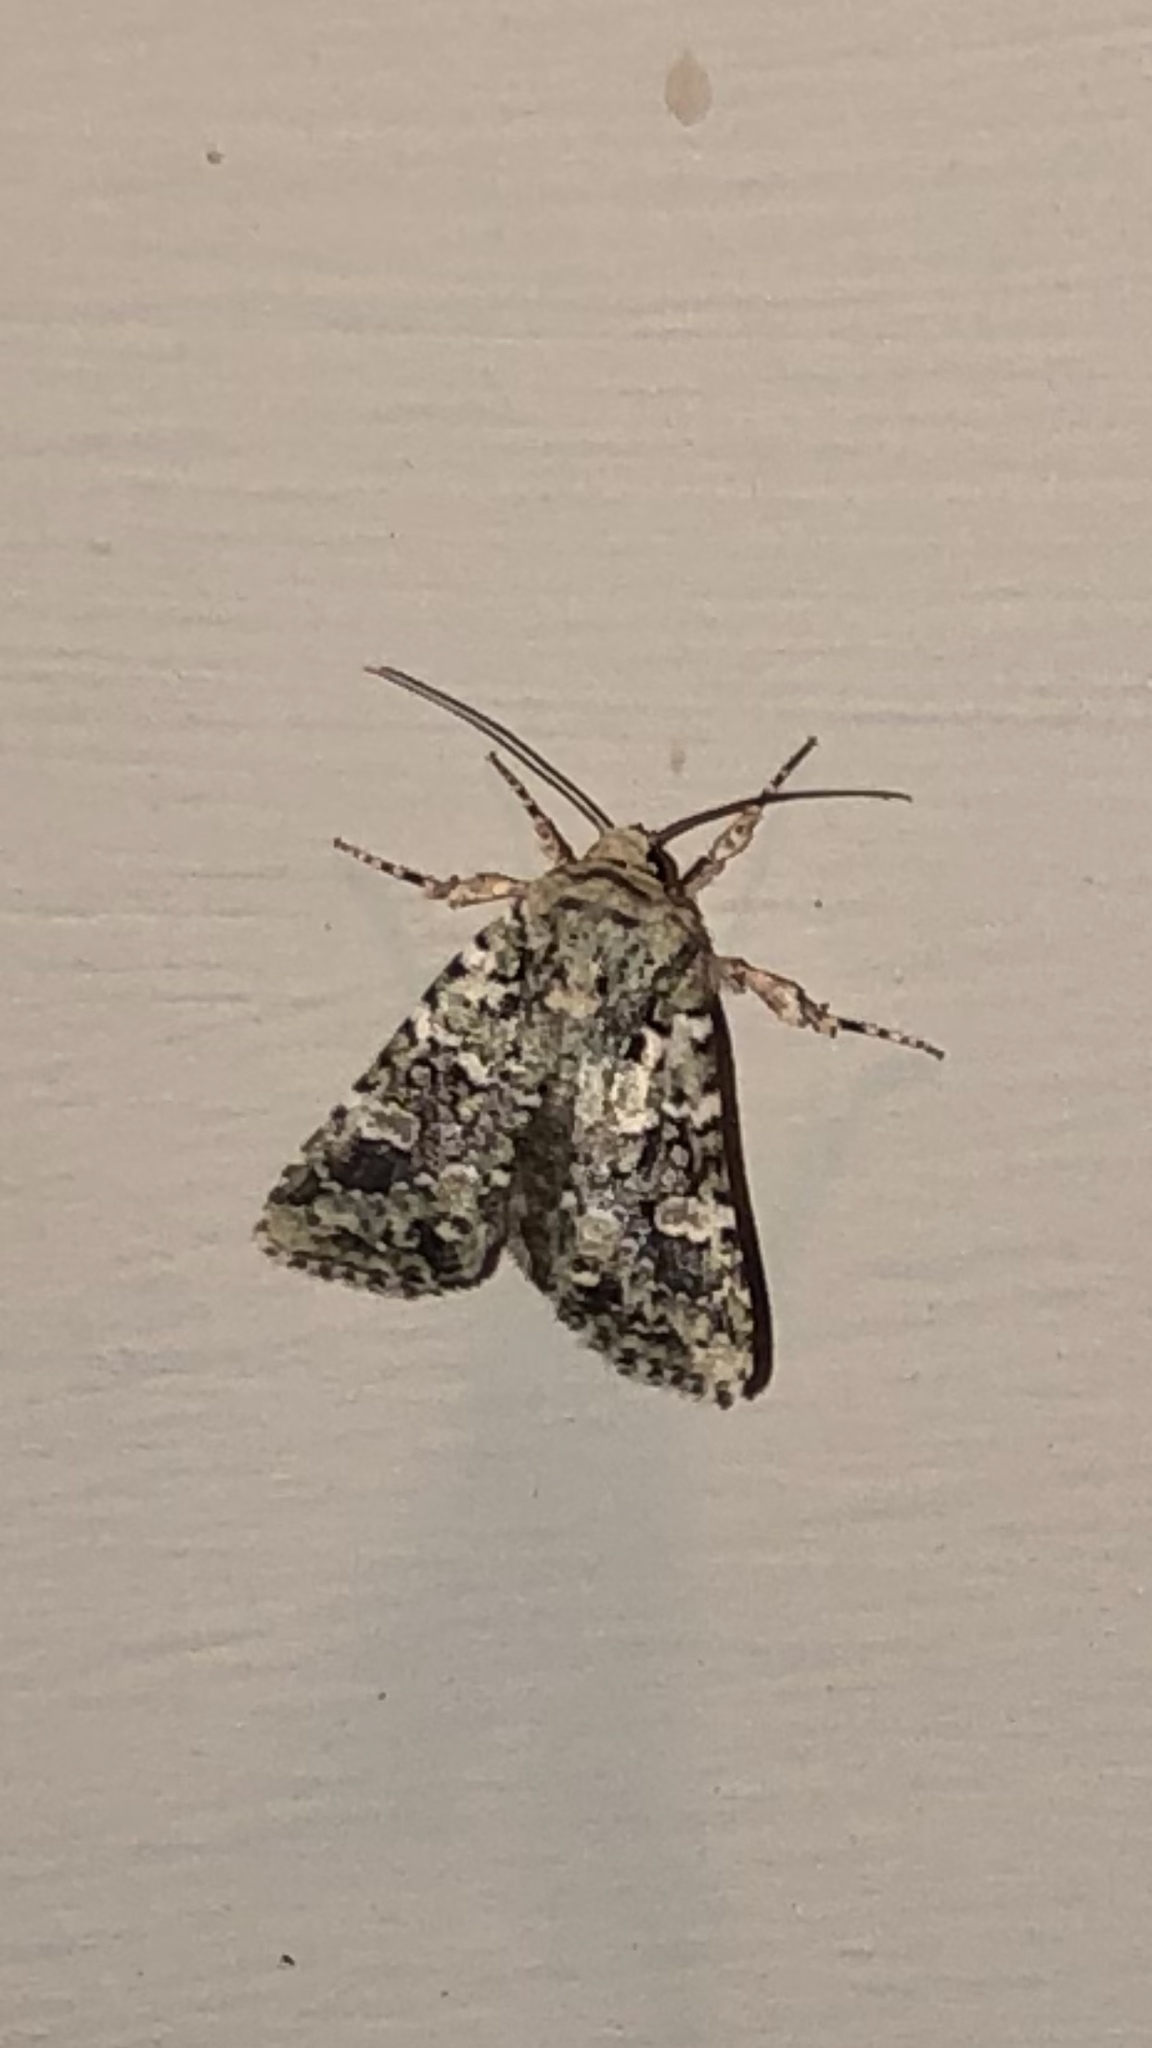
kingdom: Animalia
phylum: Arthropoda
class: Insecta
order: Lepidoptera
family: Noctuidae
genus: Lacinipolia
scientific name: Lacinipolia laudabilis
